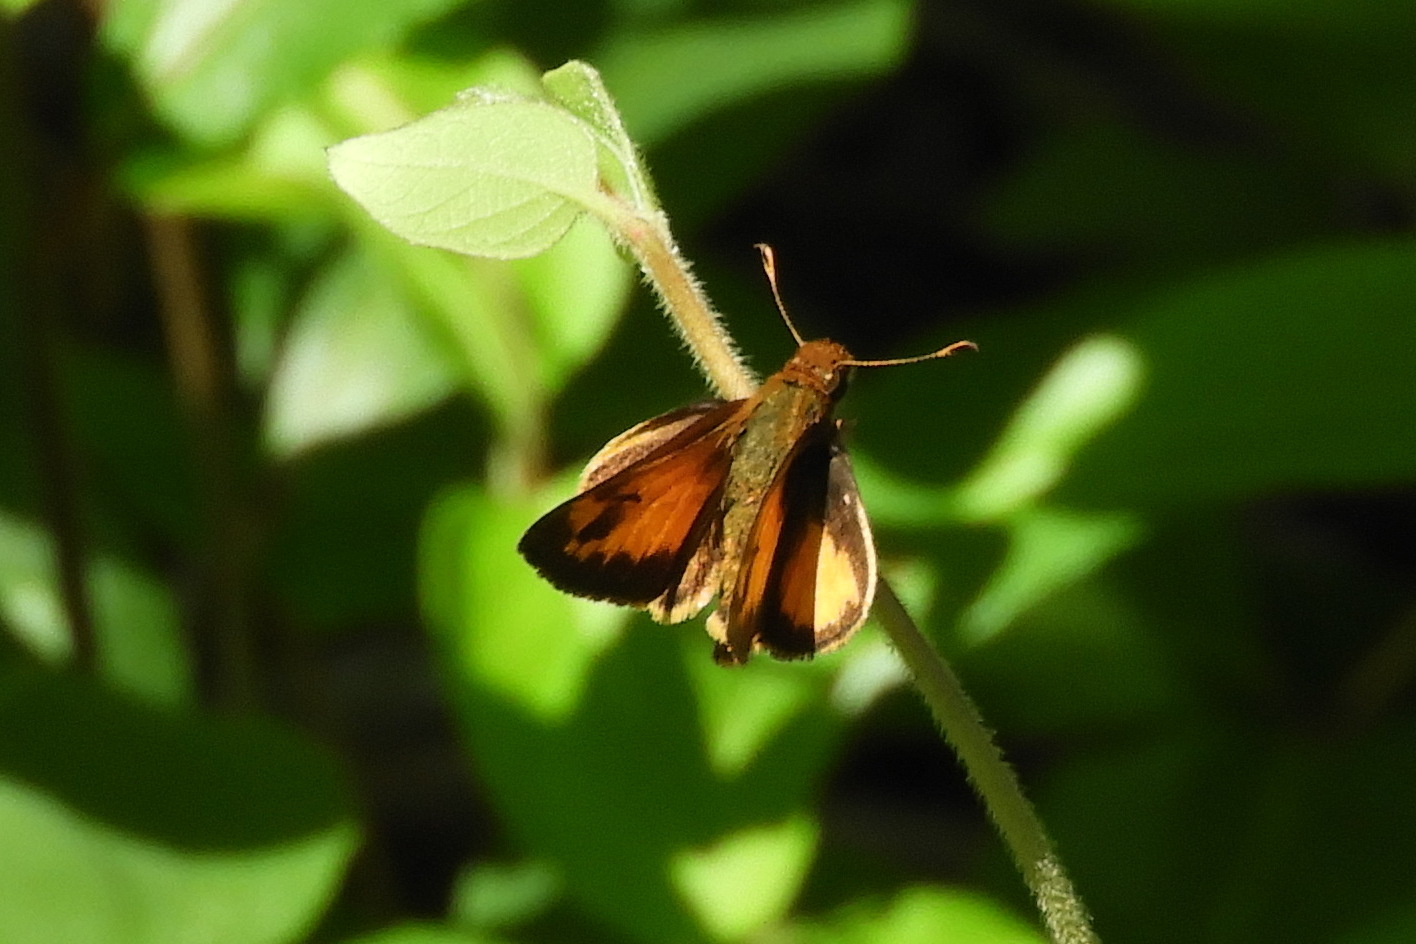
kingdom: Animalia
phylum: Arthropoda
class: Insecta
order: Lepidoptera
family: Hesperiidae
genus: Lon
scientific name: Lon zabulon
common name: Zabulon skipper
